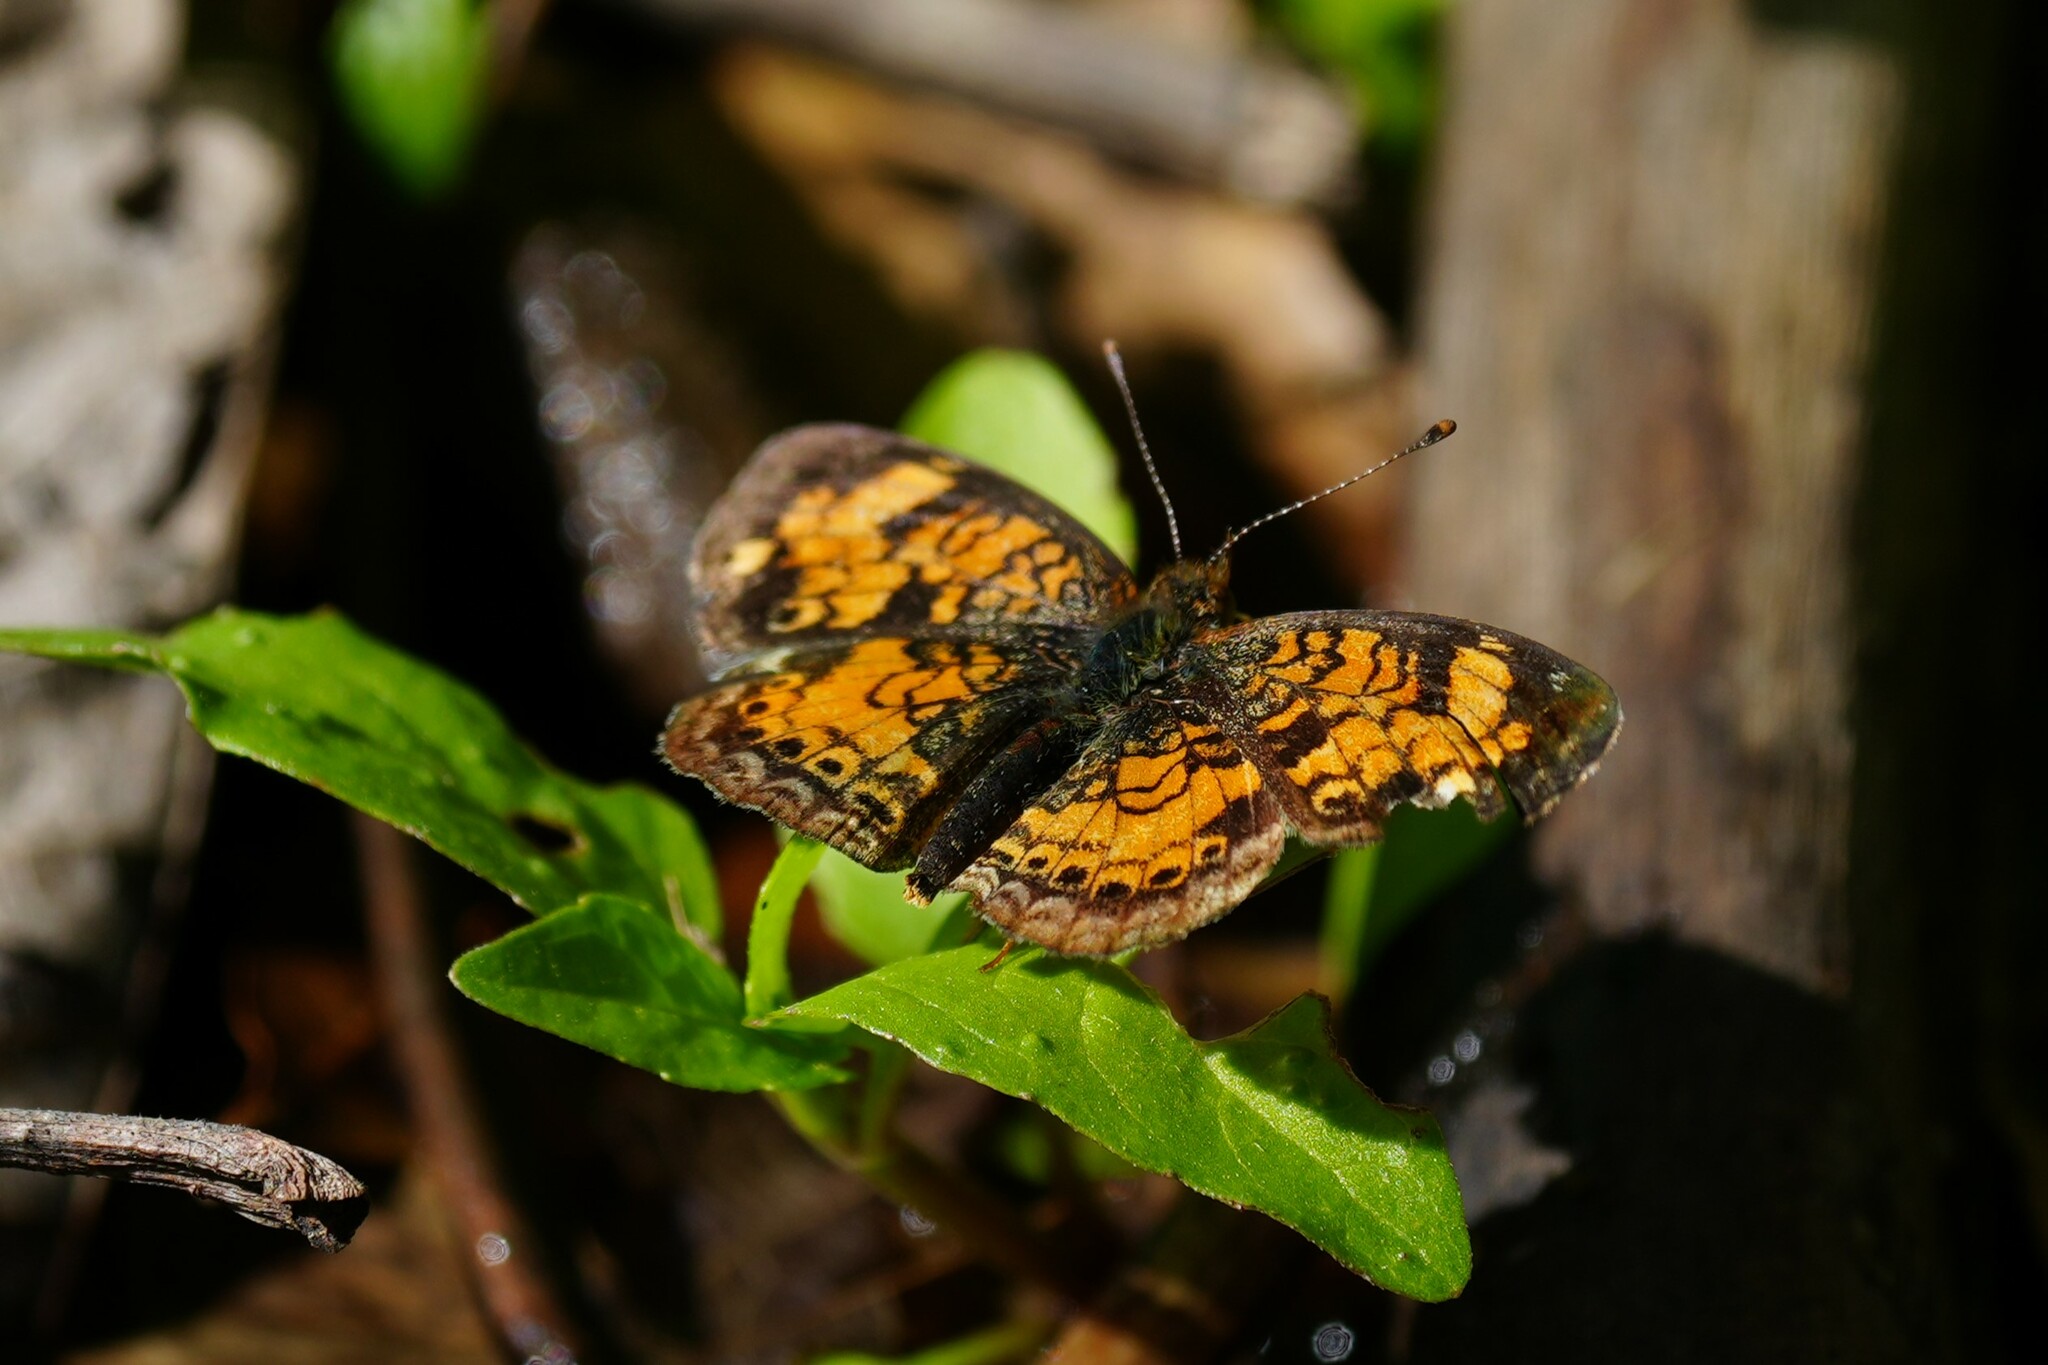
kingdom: Animalia
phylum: Arthropoda
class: Insecta
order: Lepidoptera
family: Nymphalidae
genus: Phyciodes
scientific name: Phyciodes tharos
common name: Pearl crescent
